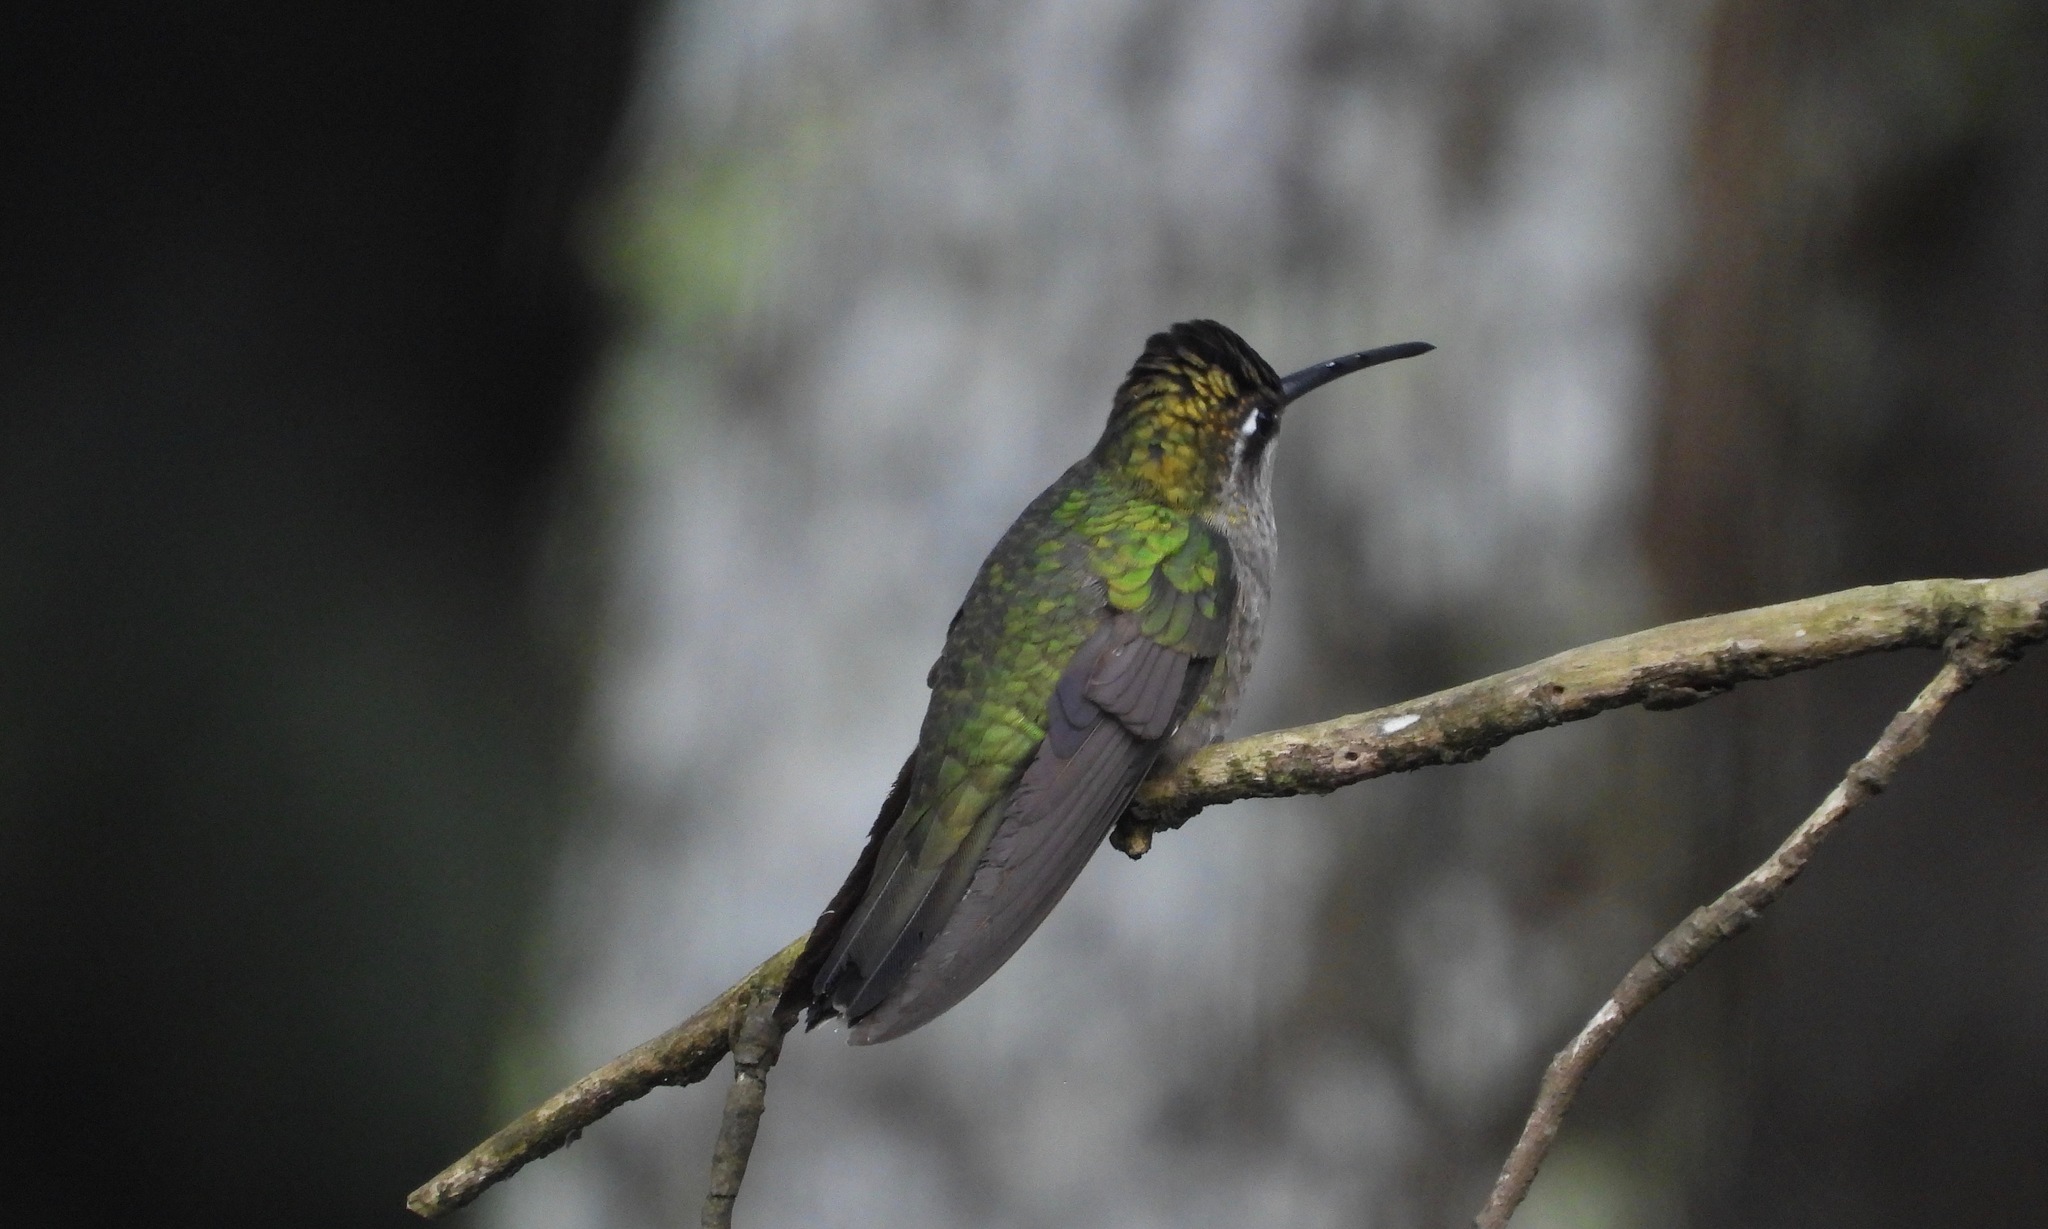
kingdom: Animalia
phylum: Chordata
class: Aves
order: Apodiformes
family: Trochilidae
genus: Eugenes
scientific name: Eugenes fulgens
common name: Magnificent hummingbird
